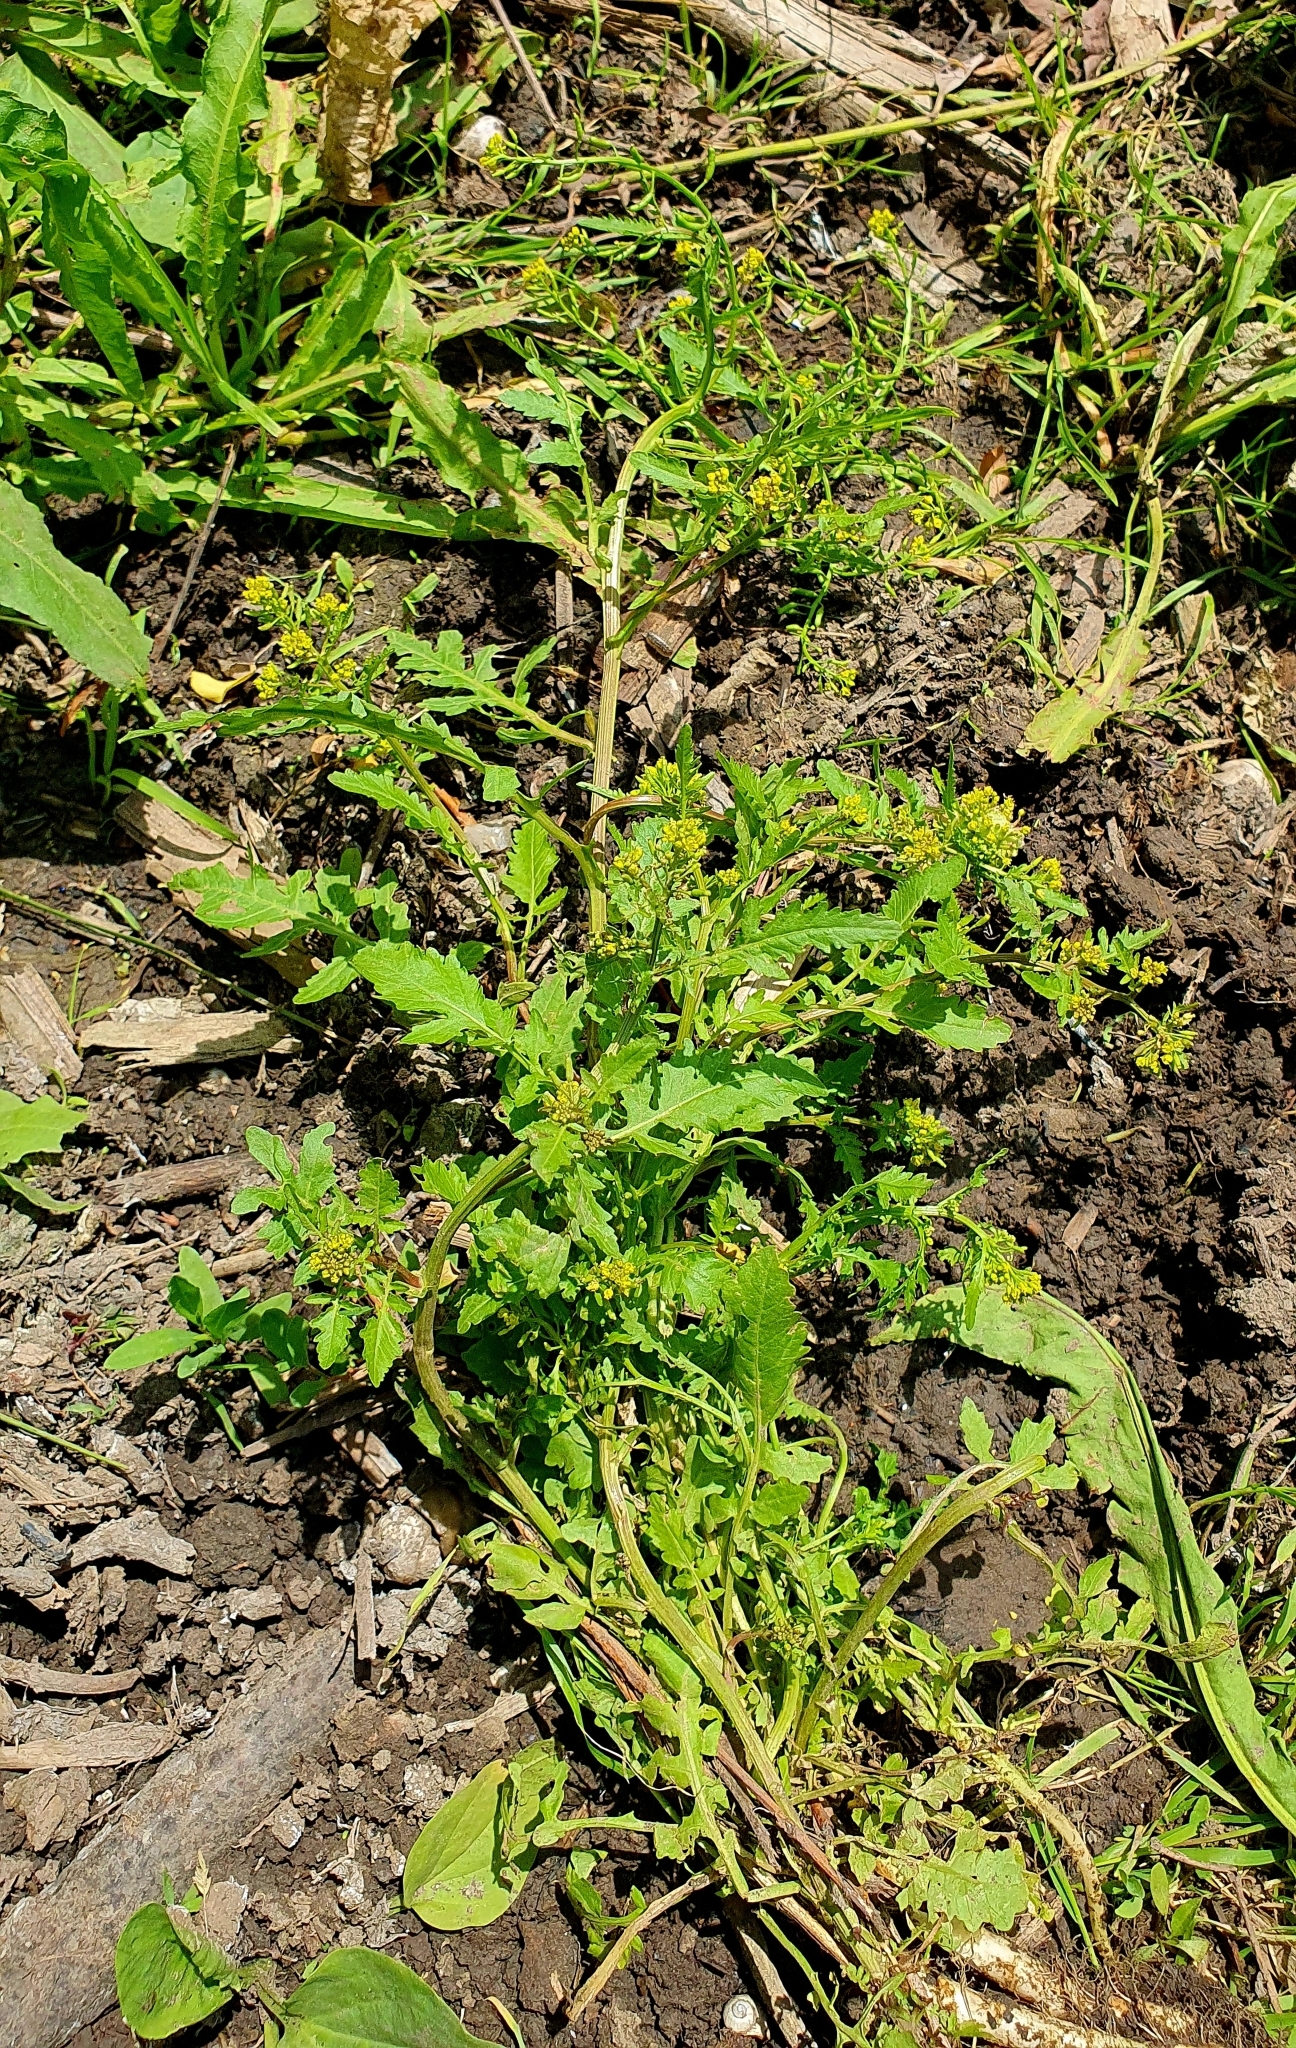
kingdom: Plantae
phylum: Tracheophyta
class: Magnoliopsida
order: Brassicales
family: Brassicaceae
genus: Rorippa
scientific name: Rorippa palustris
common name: Marsh yellow-cress
